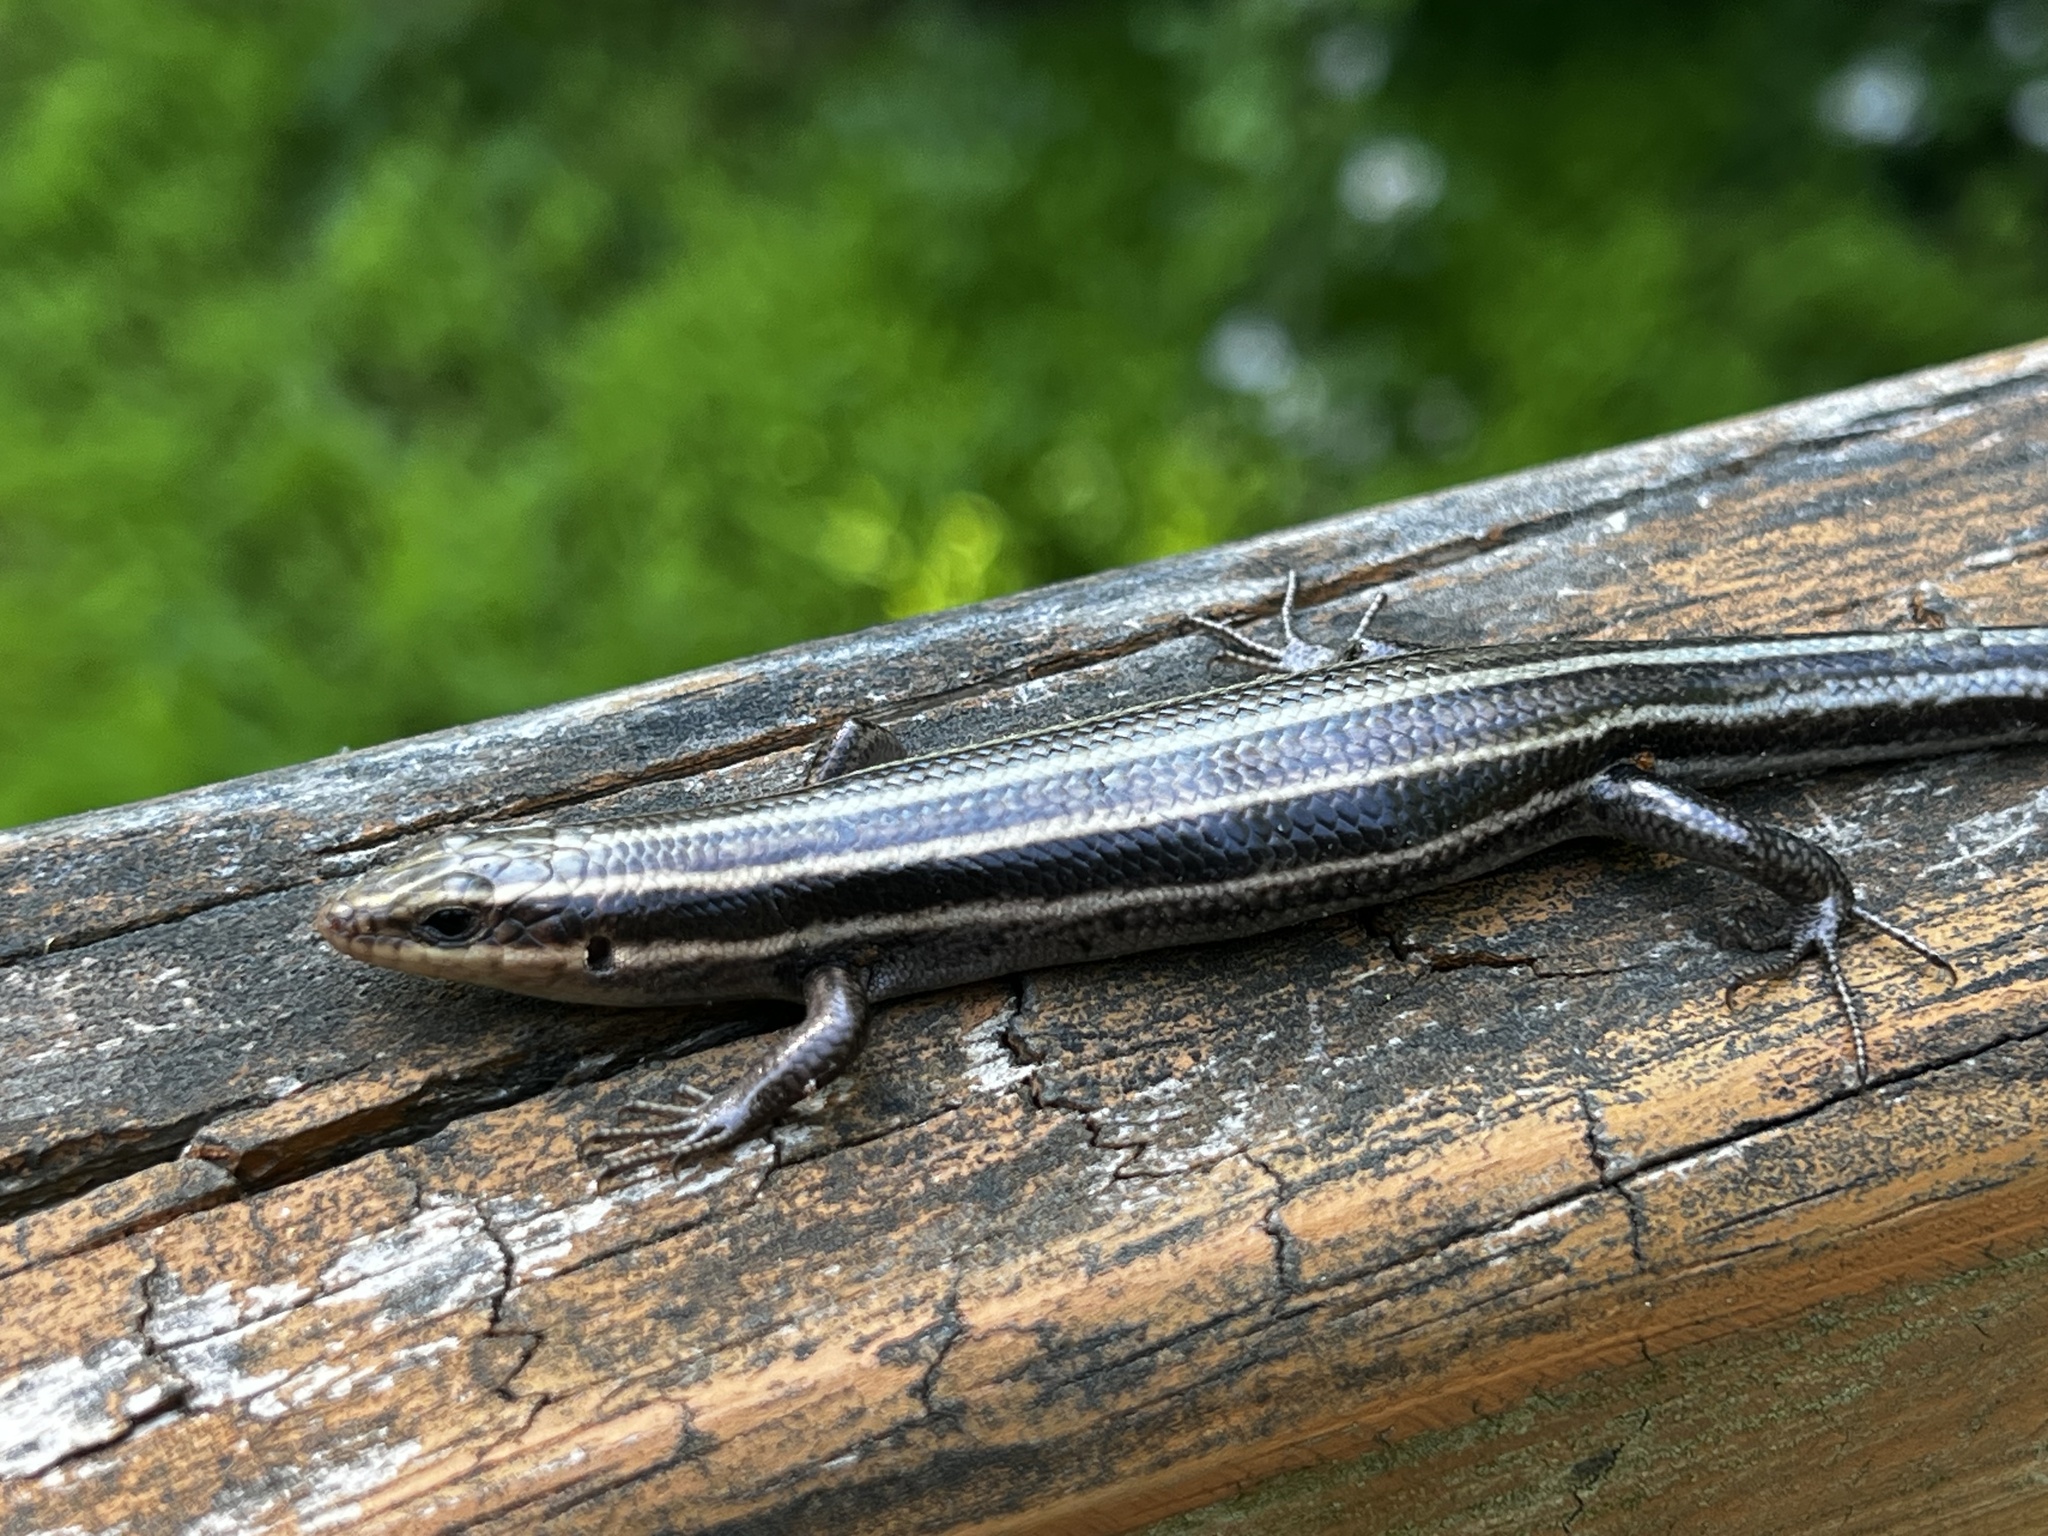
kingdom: Animalia
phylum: Chordata
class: Squamata
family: Scincidae
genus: Plestiodon
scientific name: Plestiodon fasciatus
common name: Five-lined skink
